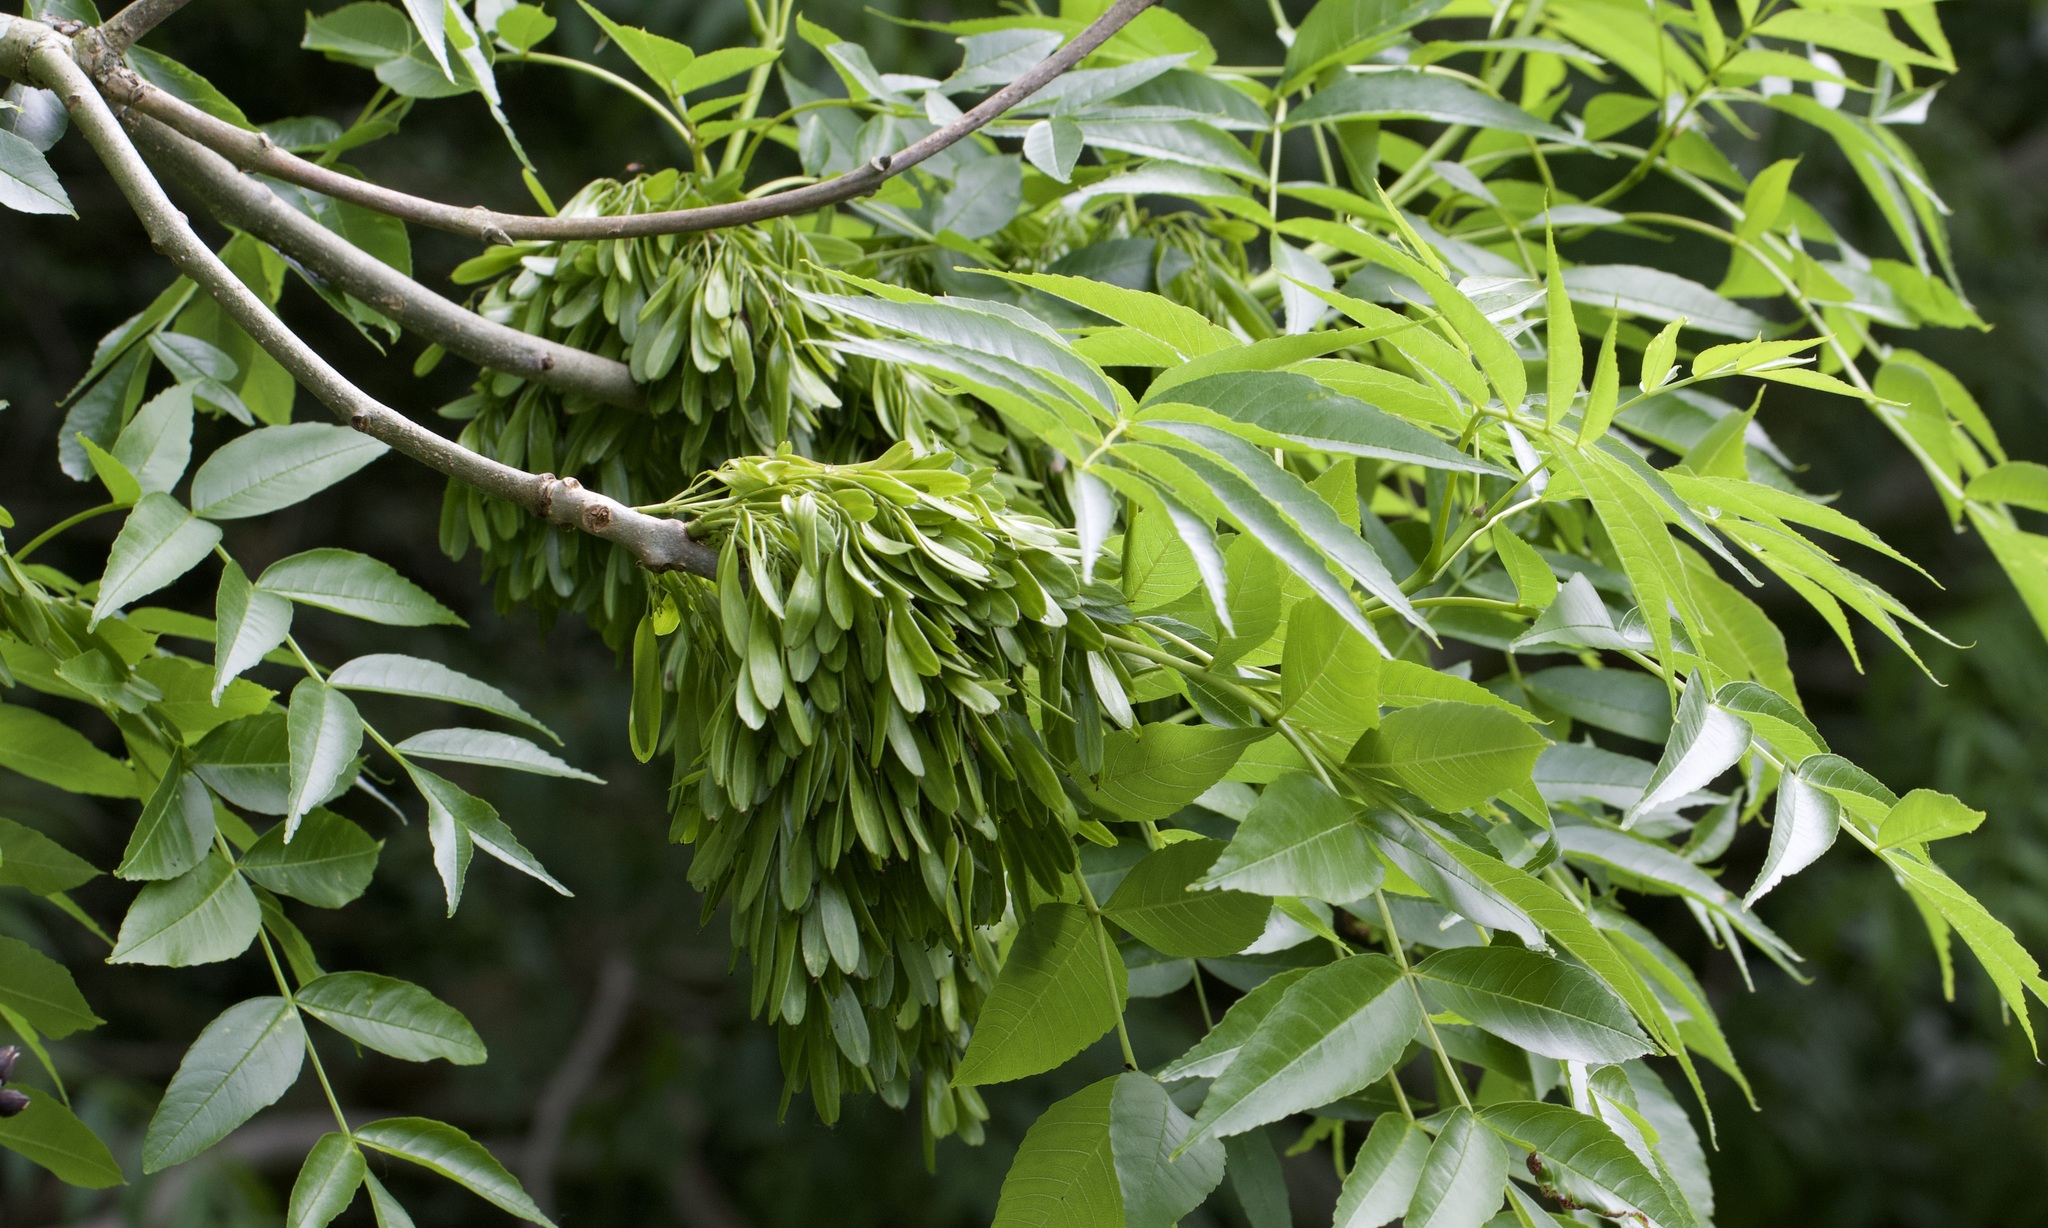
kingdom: Plantae
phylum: Tracheophyta
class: Magnoliopsida
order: Lamiales
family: Oleaceae
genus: Fraxinus
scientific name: Fraxinus excelsior
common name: European ash
